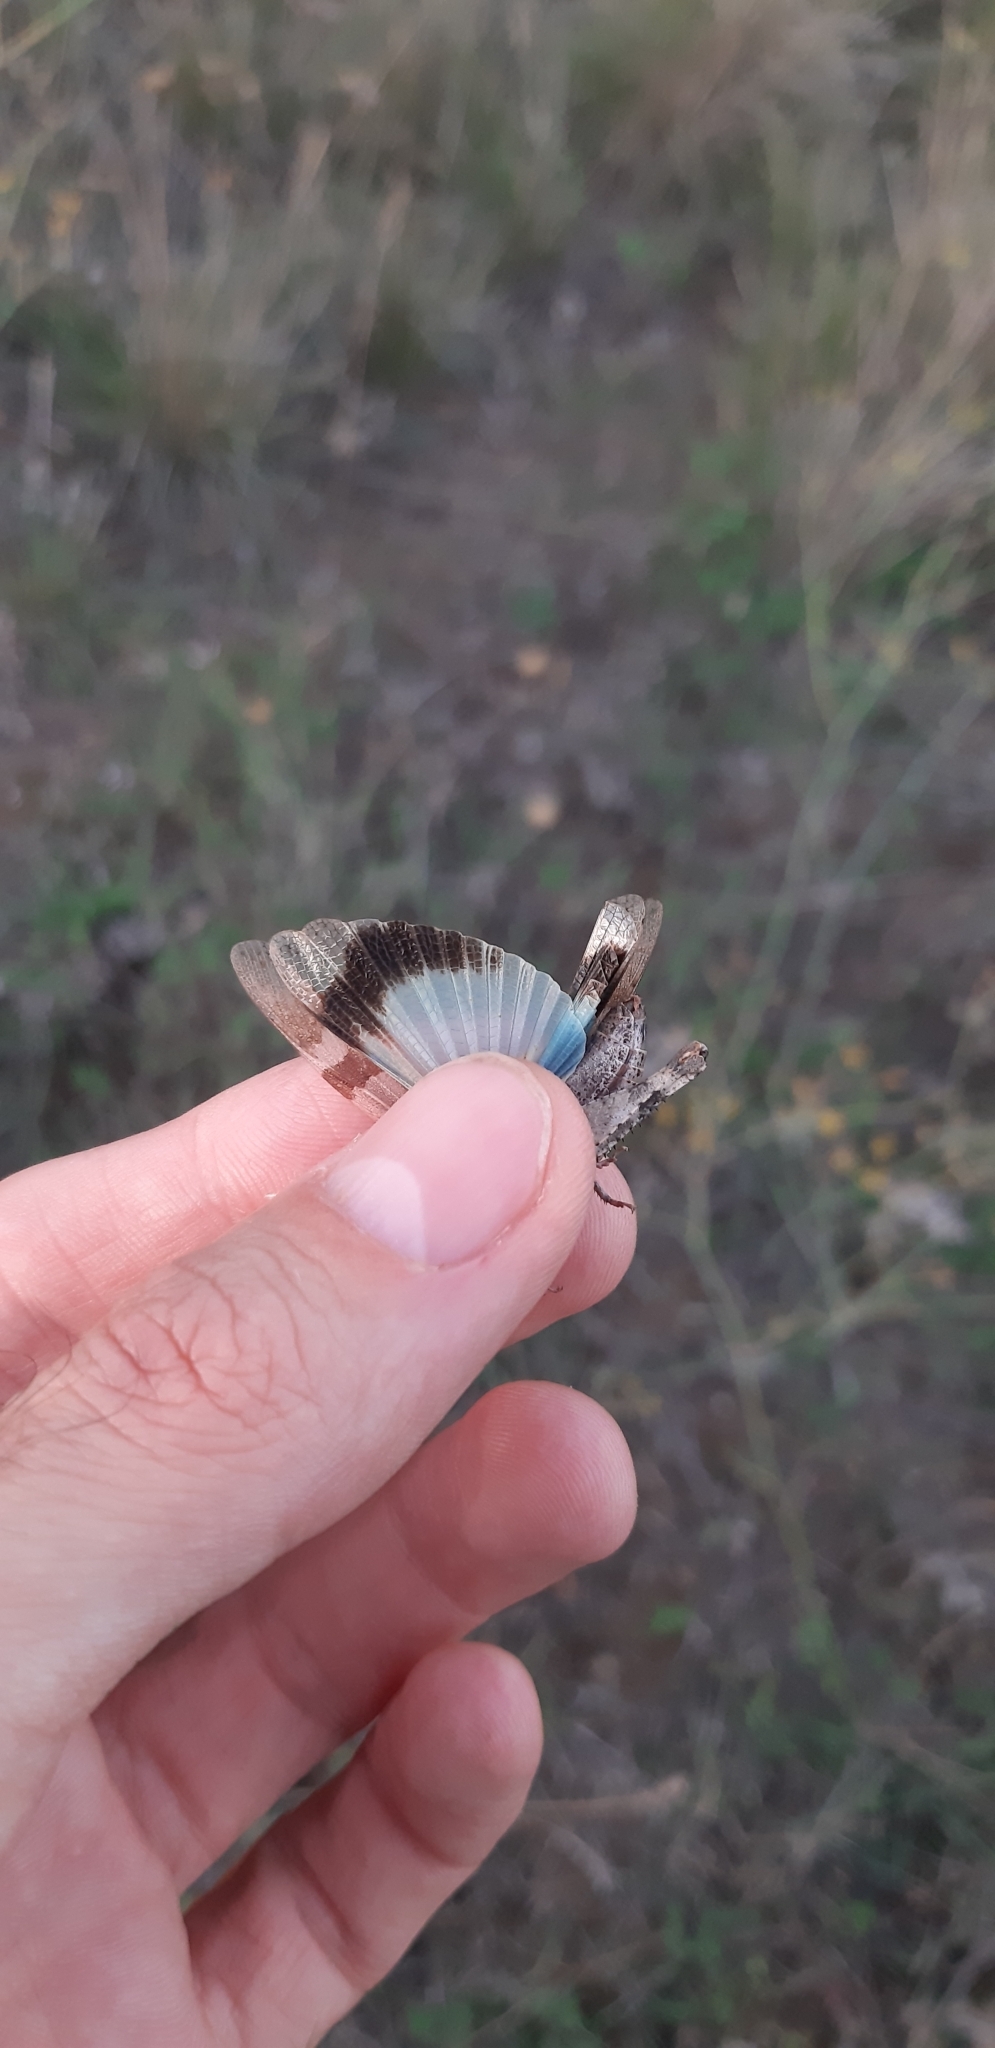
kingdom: Animalia
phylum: Arthropoda
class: Insecta
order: Orthoptera
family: Acrididae
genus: Oedipoda
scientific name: Oedipoda caerulescens
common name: Blue-winged grasshopper
